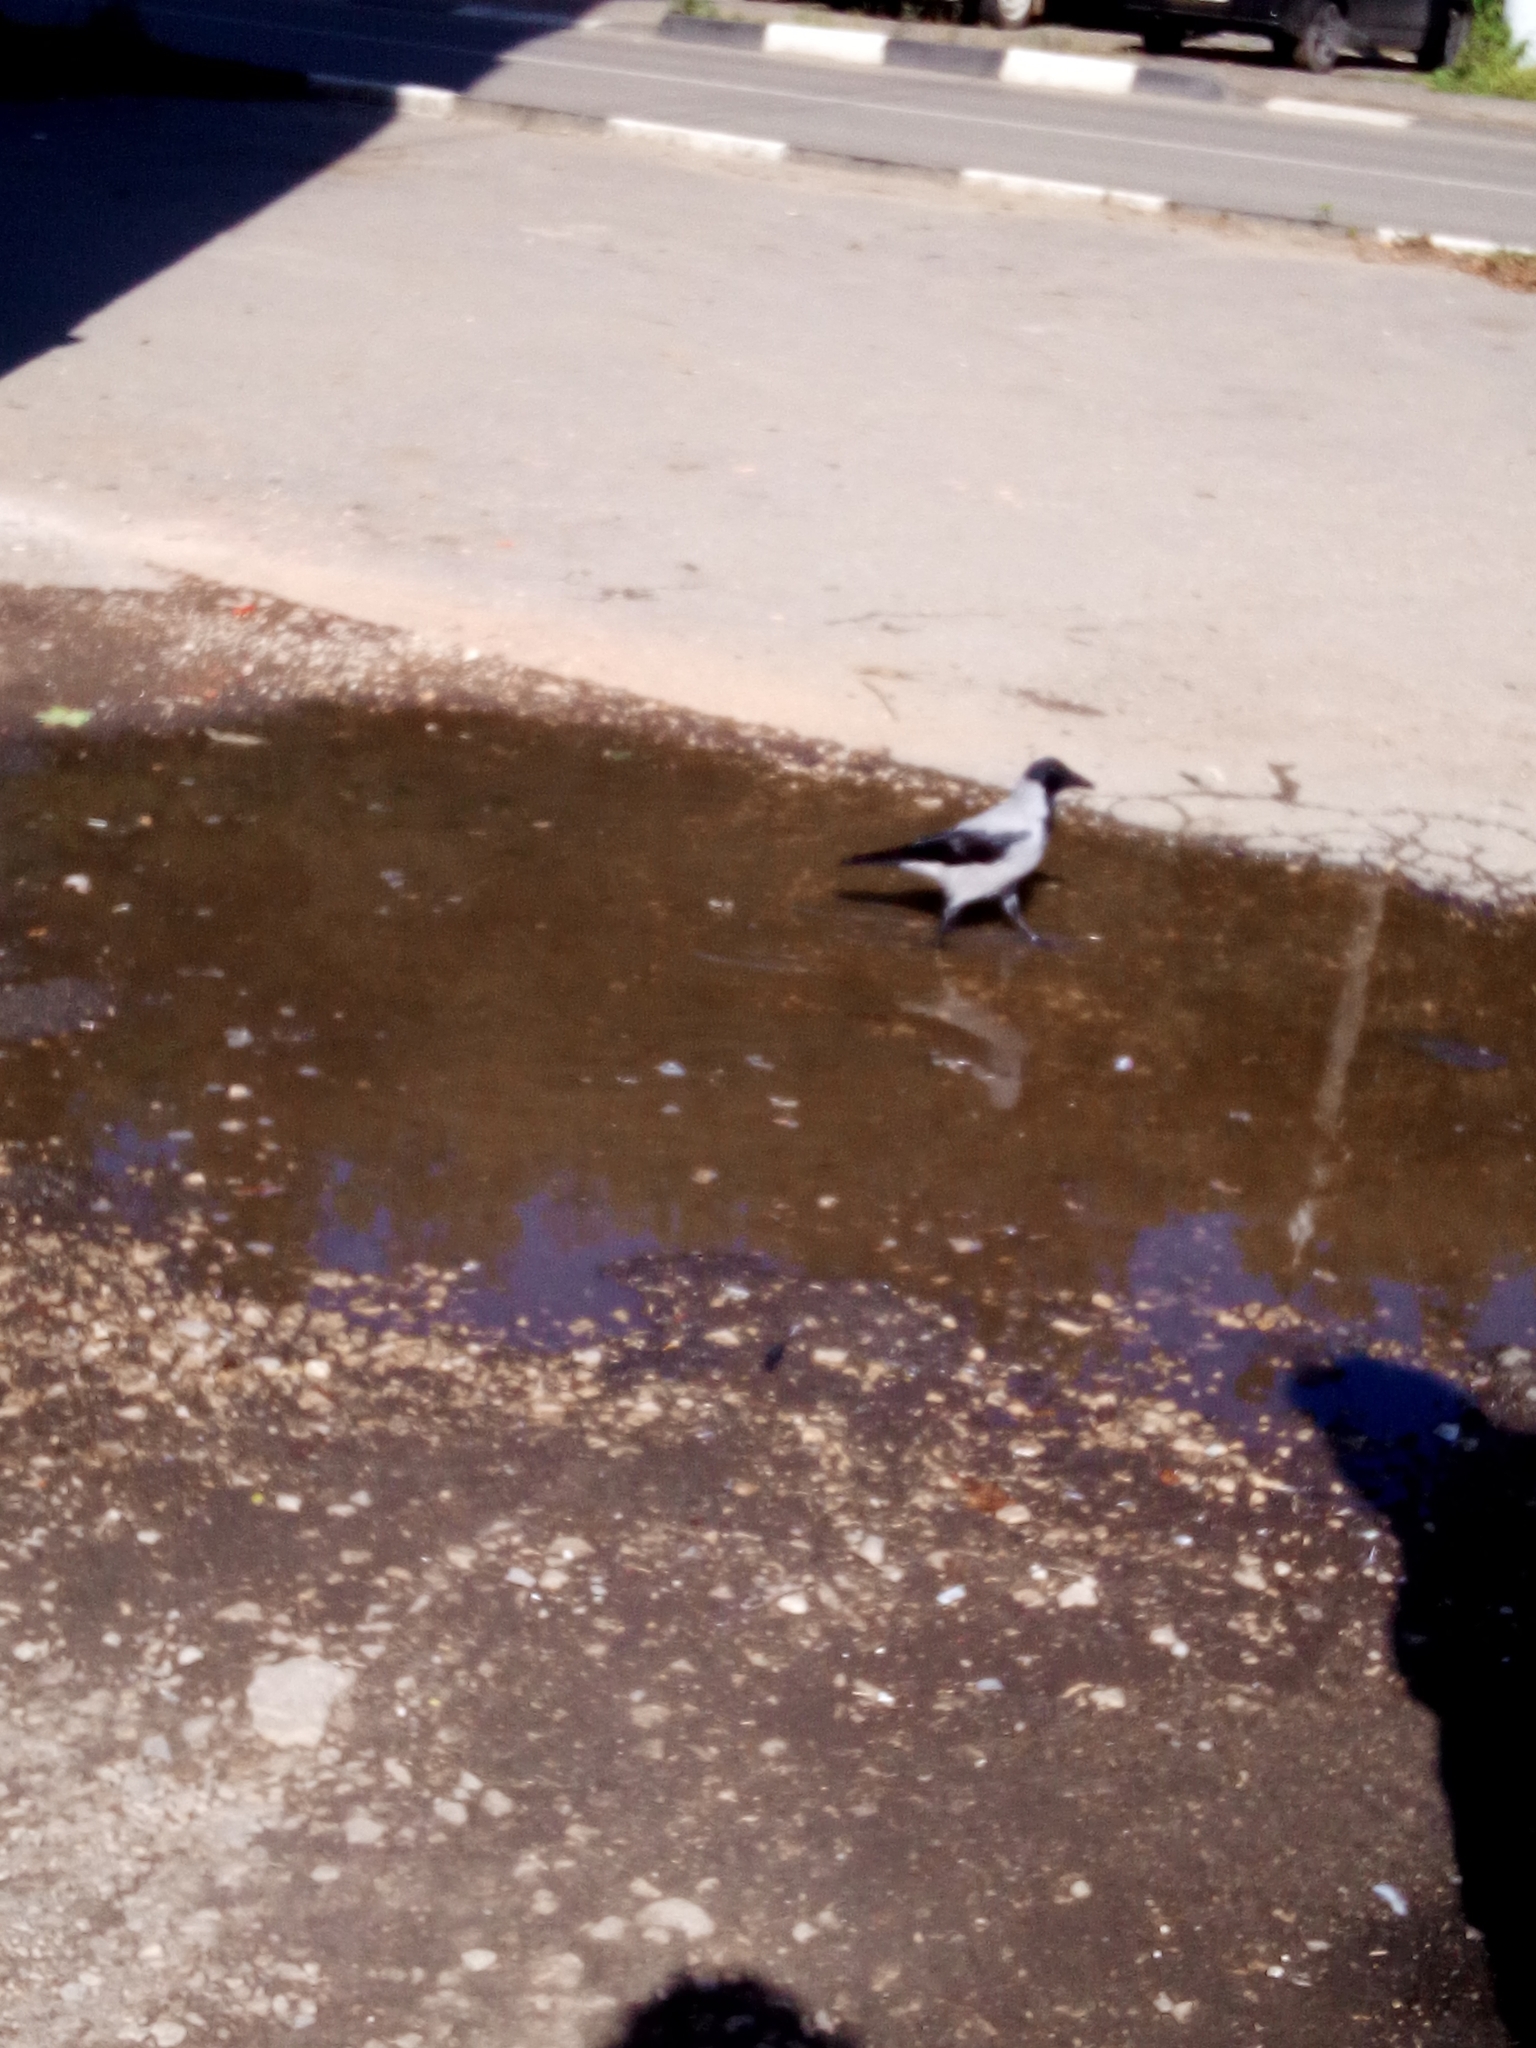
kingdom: Animalia
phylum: Chordata
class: Aves
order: Passeriformes
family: Corvidae
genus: Corvus
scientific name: Corvus cornix
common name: Hooded crow
